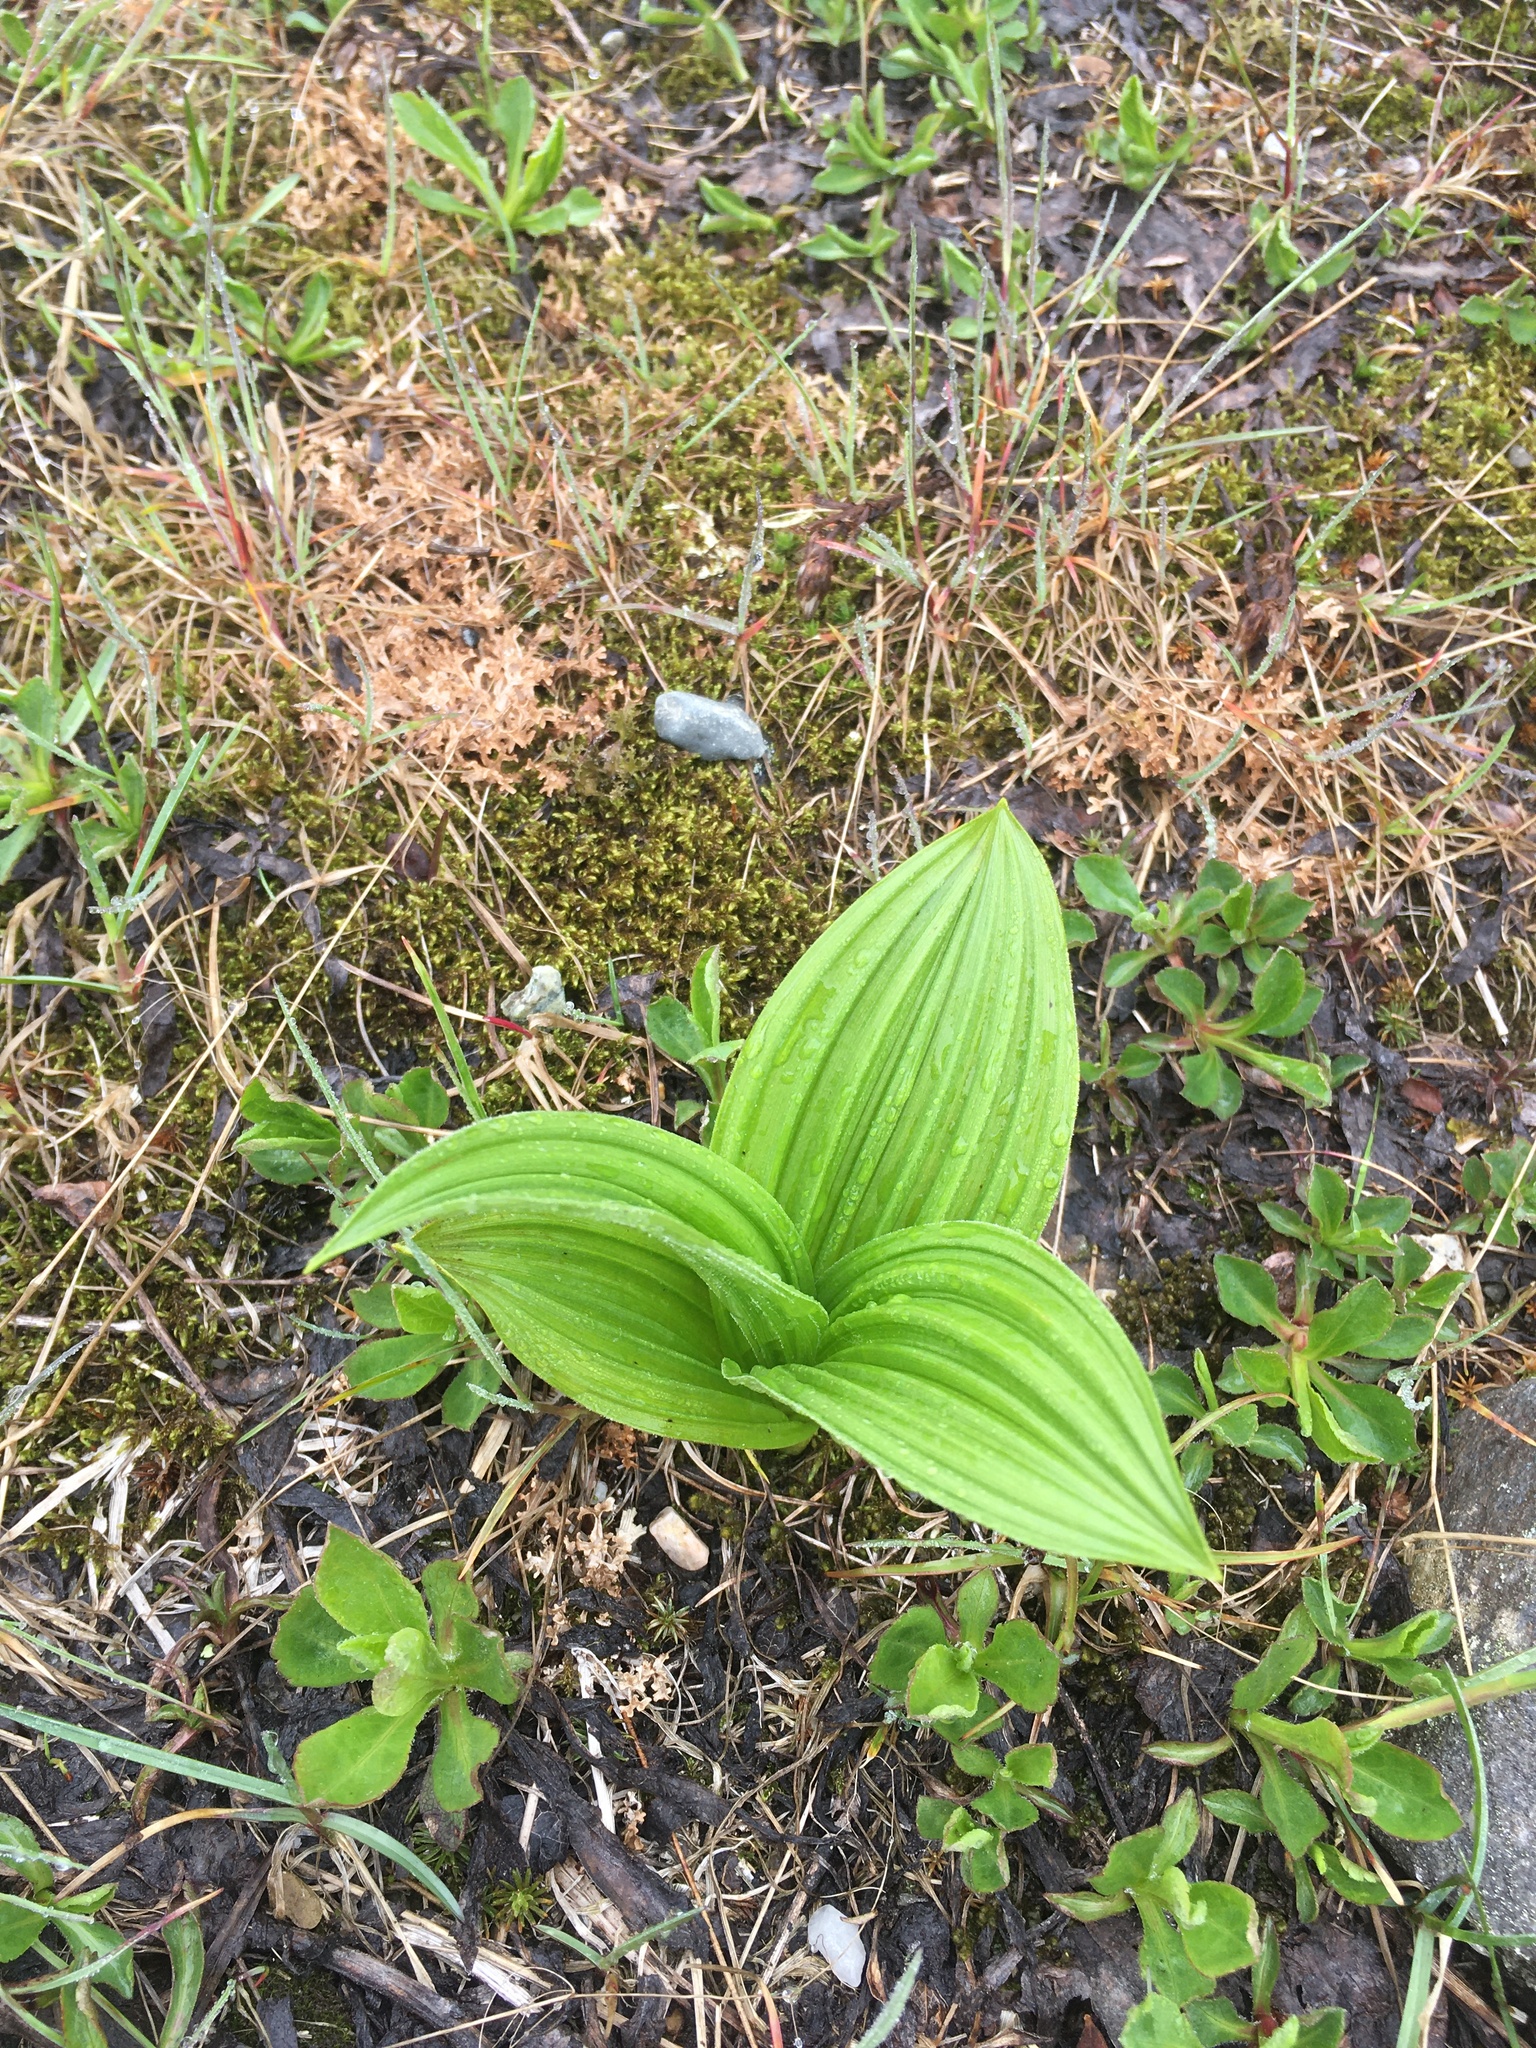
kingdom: Plantae
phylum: Tracheophyta
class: Liliopsida
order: Liliales
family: Melanthiaceae
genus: Veratrum
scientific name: Veratrum viride
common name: American false hellebore
